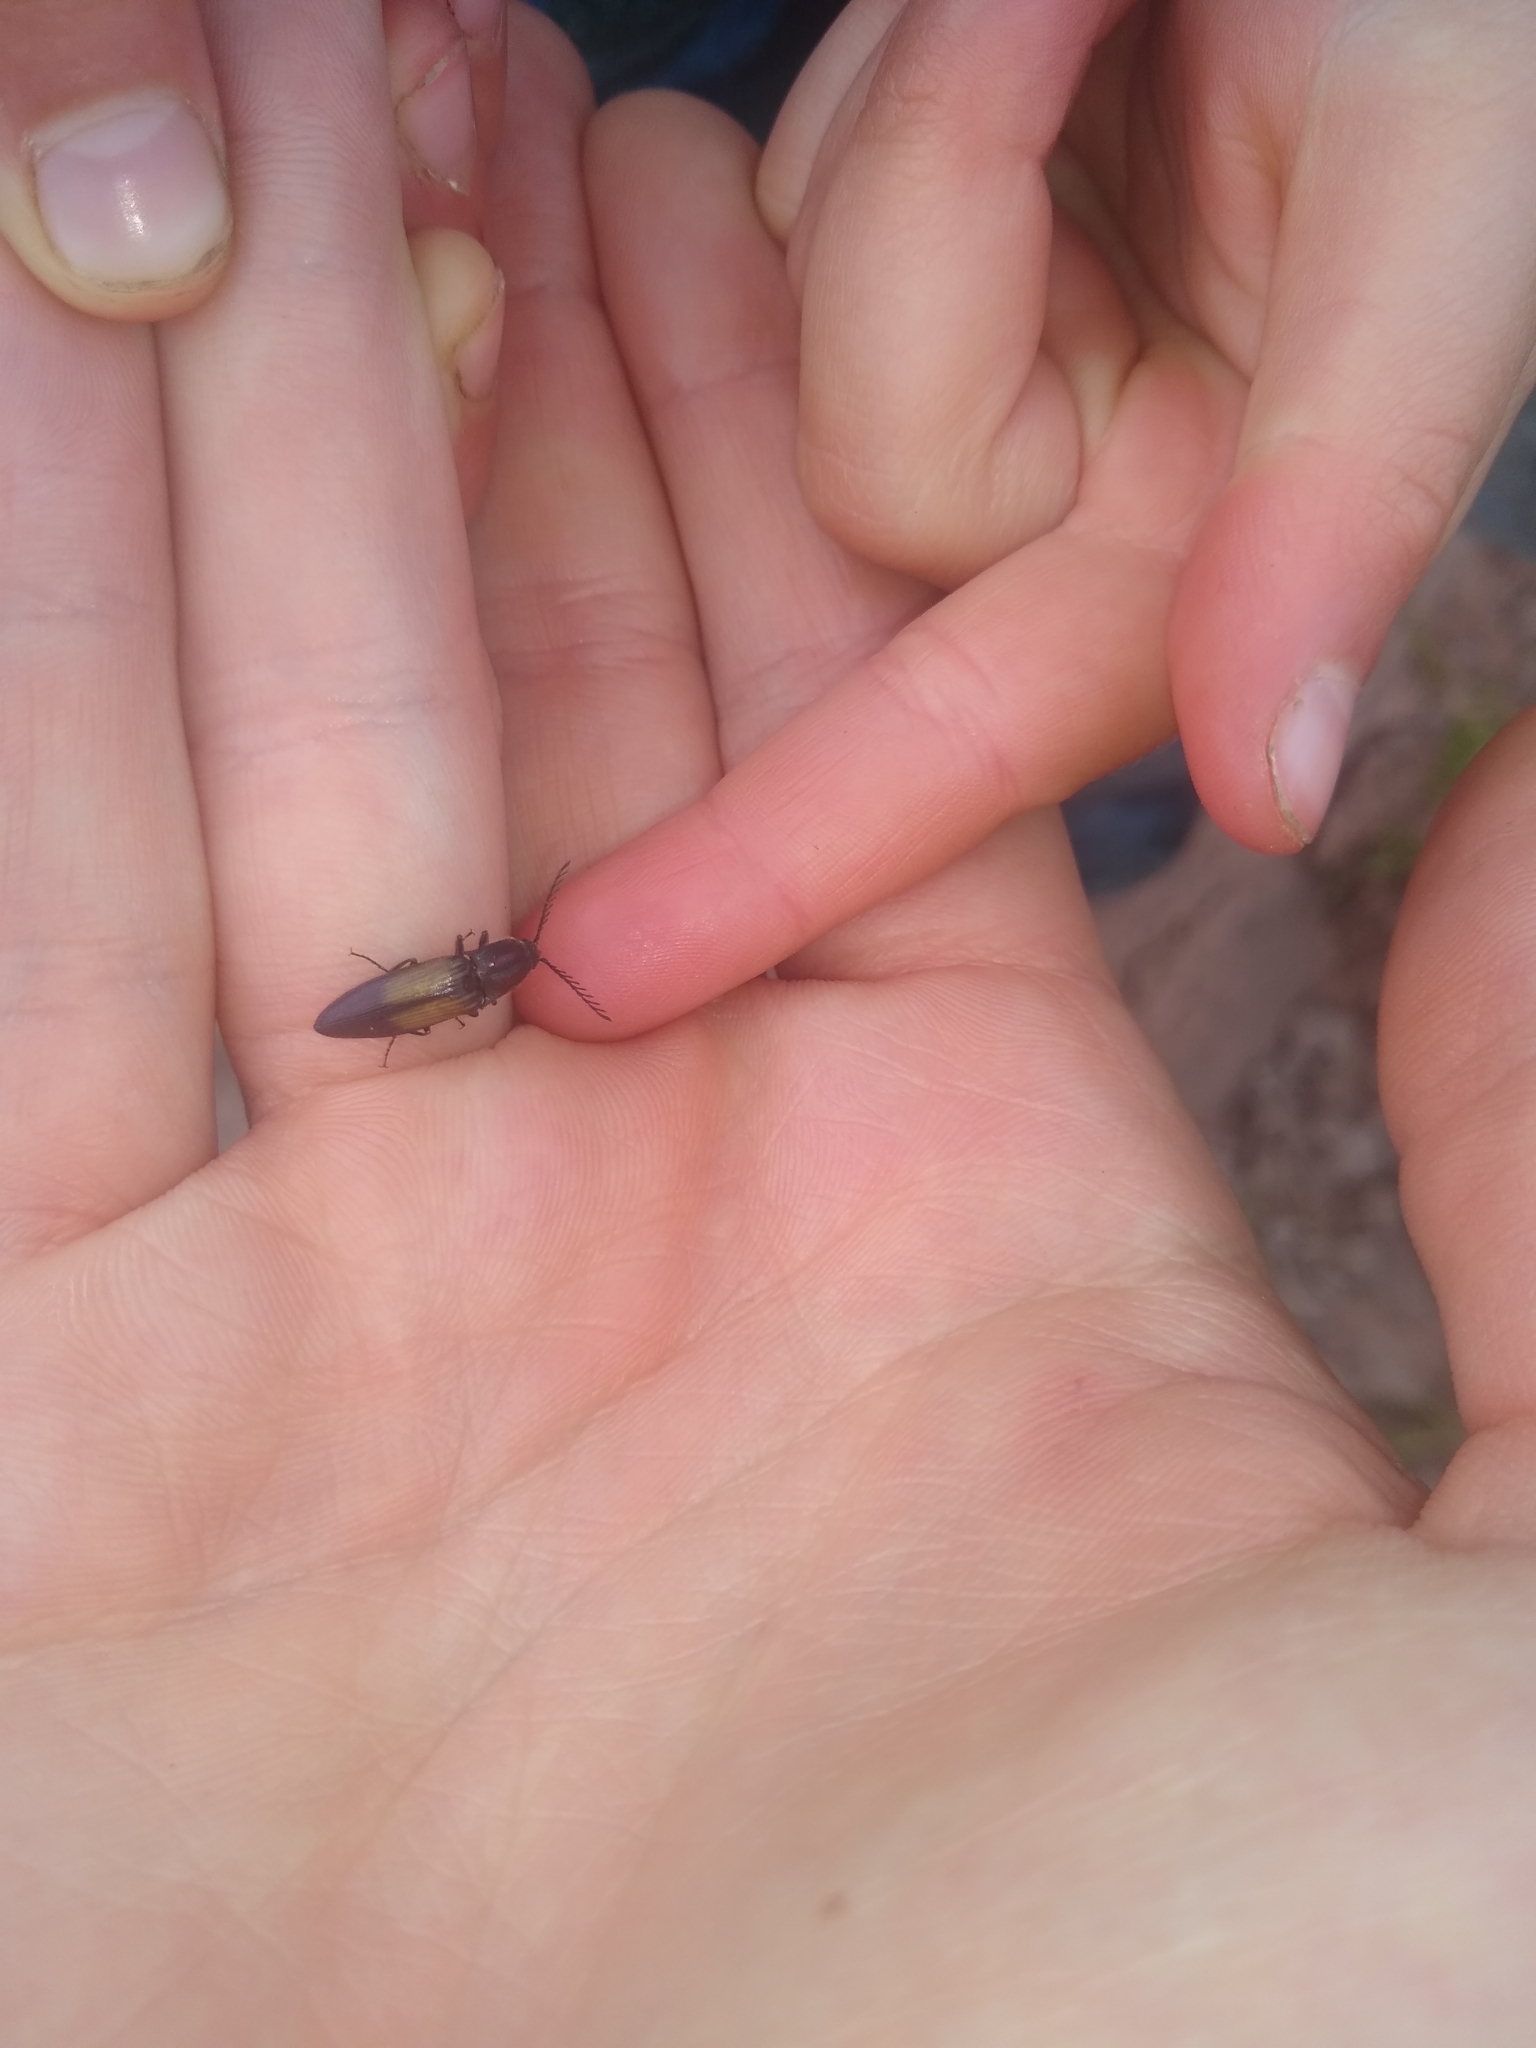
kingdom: Animalia
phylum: Arthropoda
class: Insecta
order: Coleoptera
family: Elateridae
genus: Ctenicera
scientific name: Ctenicera cuprea
